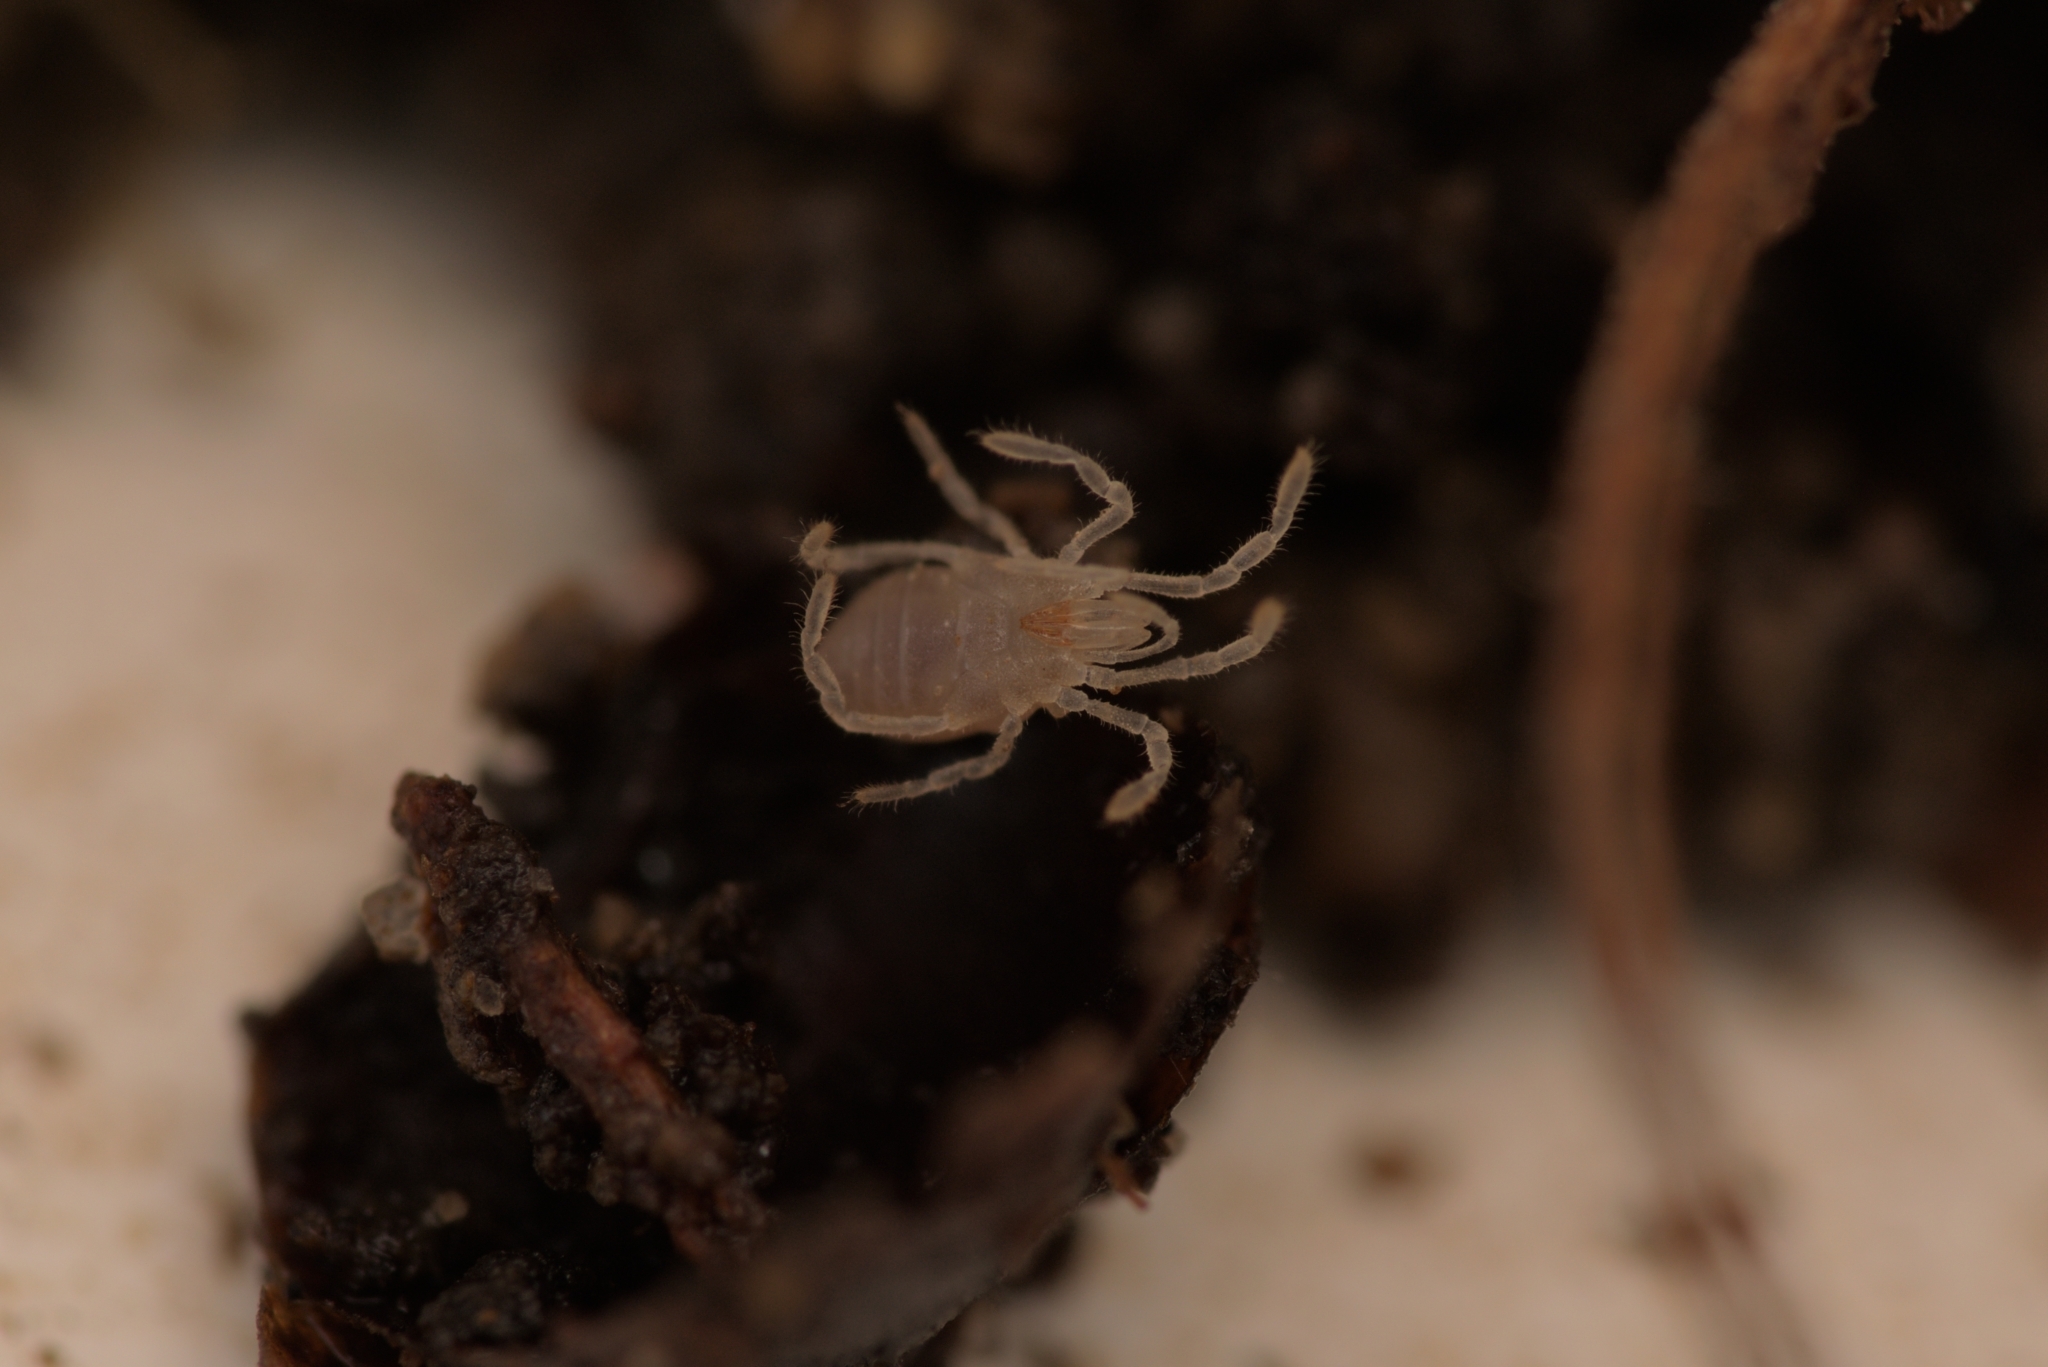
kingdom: Animalia
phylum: Arthropoda
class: Arachnida
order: Opiliones
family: Sironidae
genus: Siro
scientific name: Siro rubens
